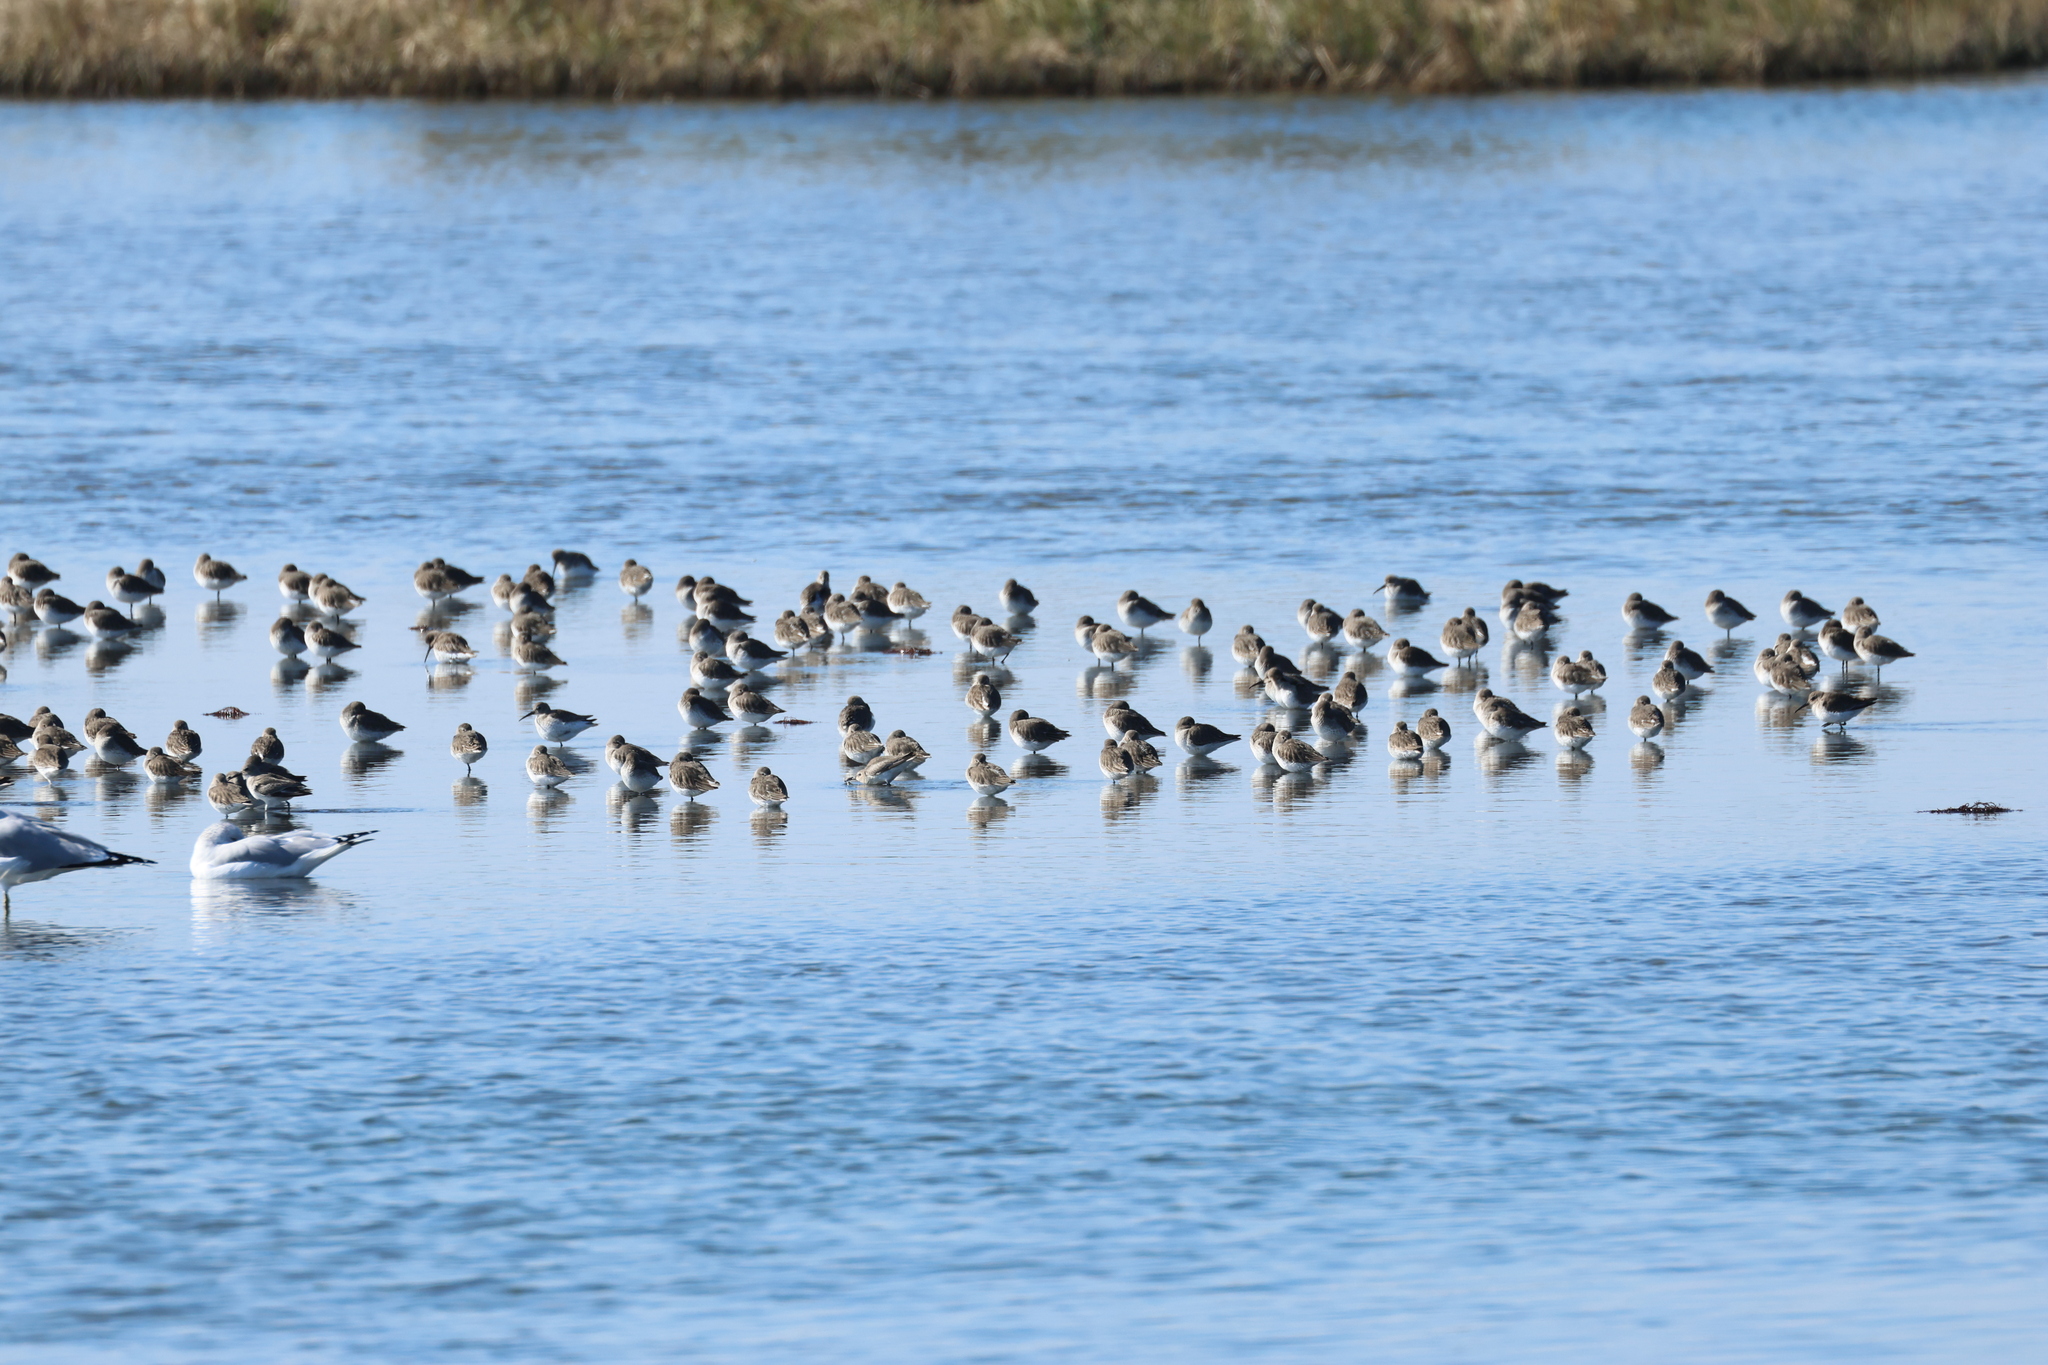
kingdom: Animalia
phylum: Chordata
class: Aves
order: Charadriiformes
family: Scolopacidae
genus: Calidris
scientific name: Calidris alpina
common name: Dunlin
